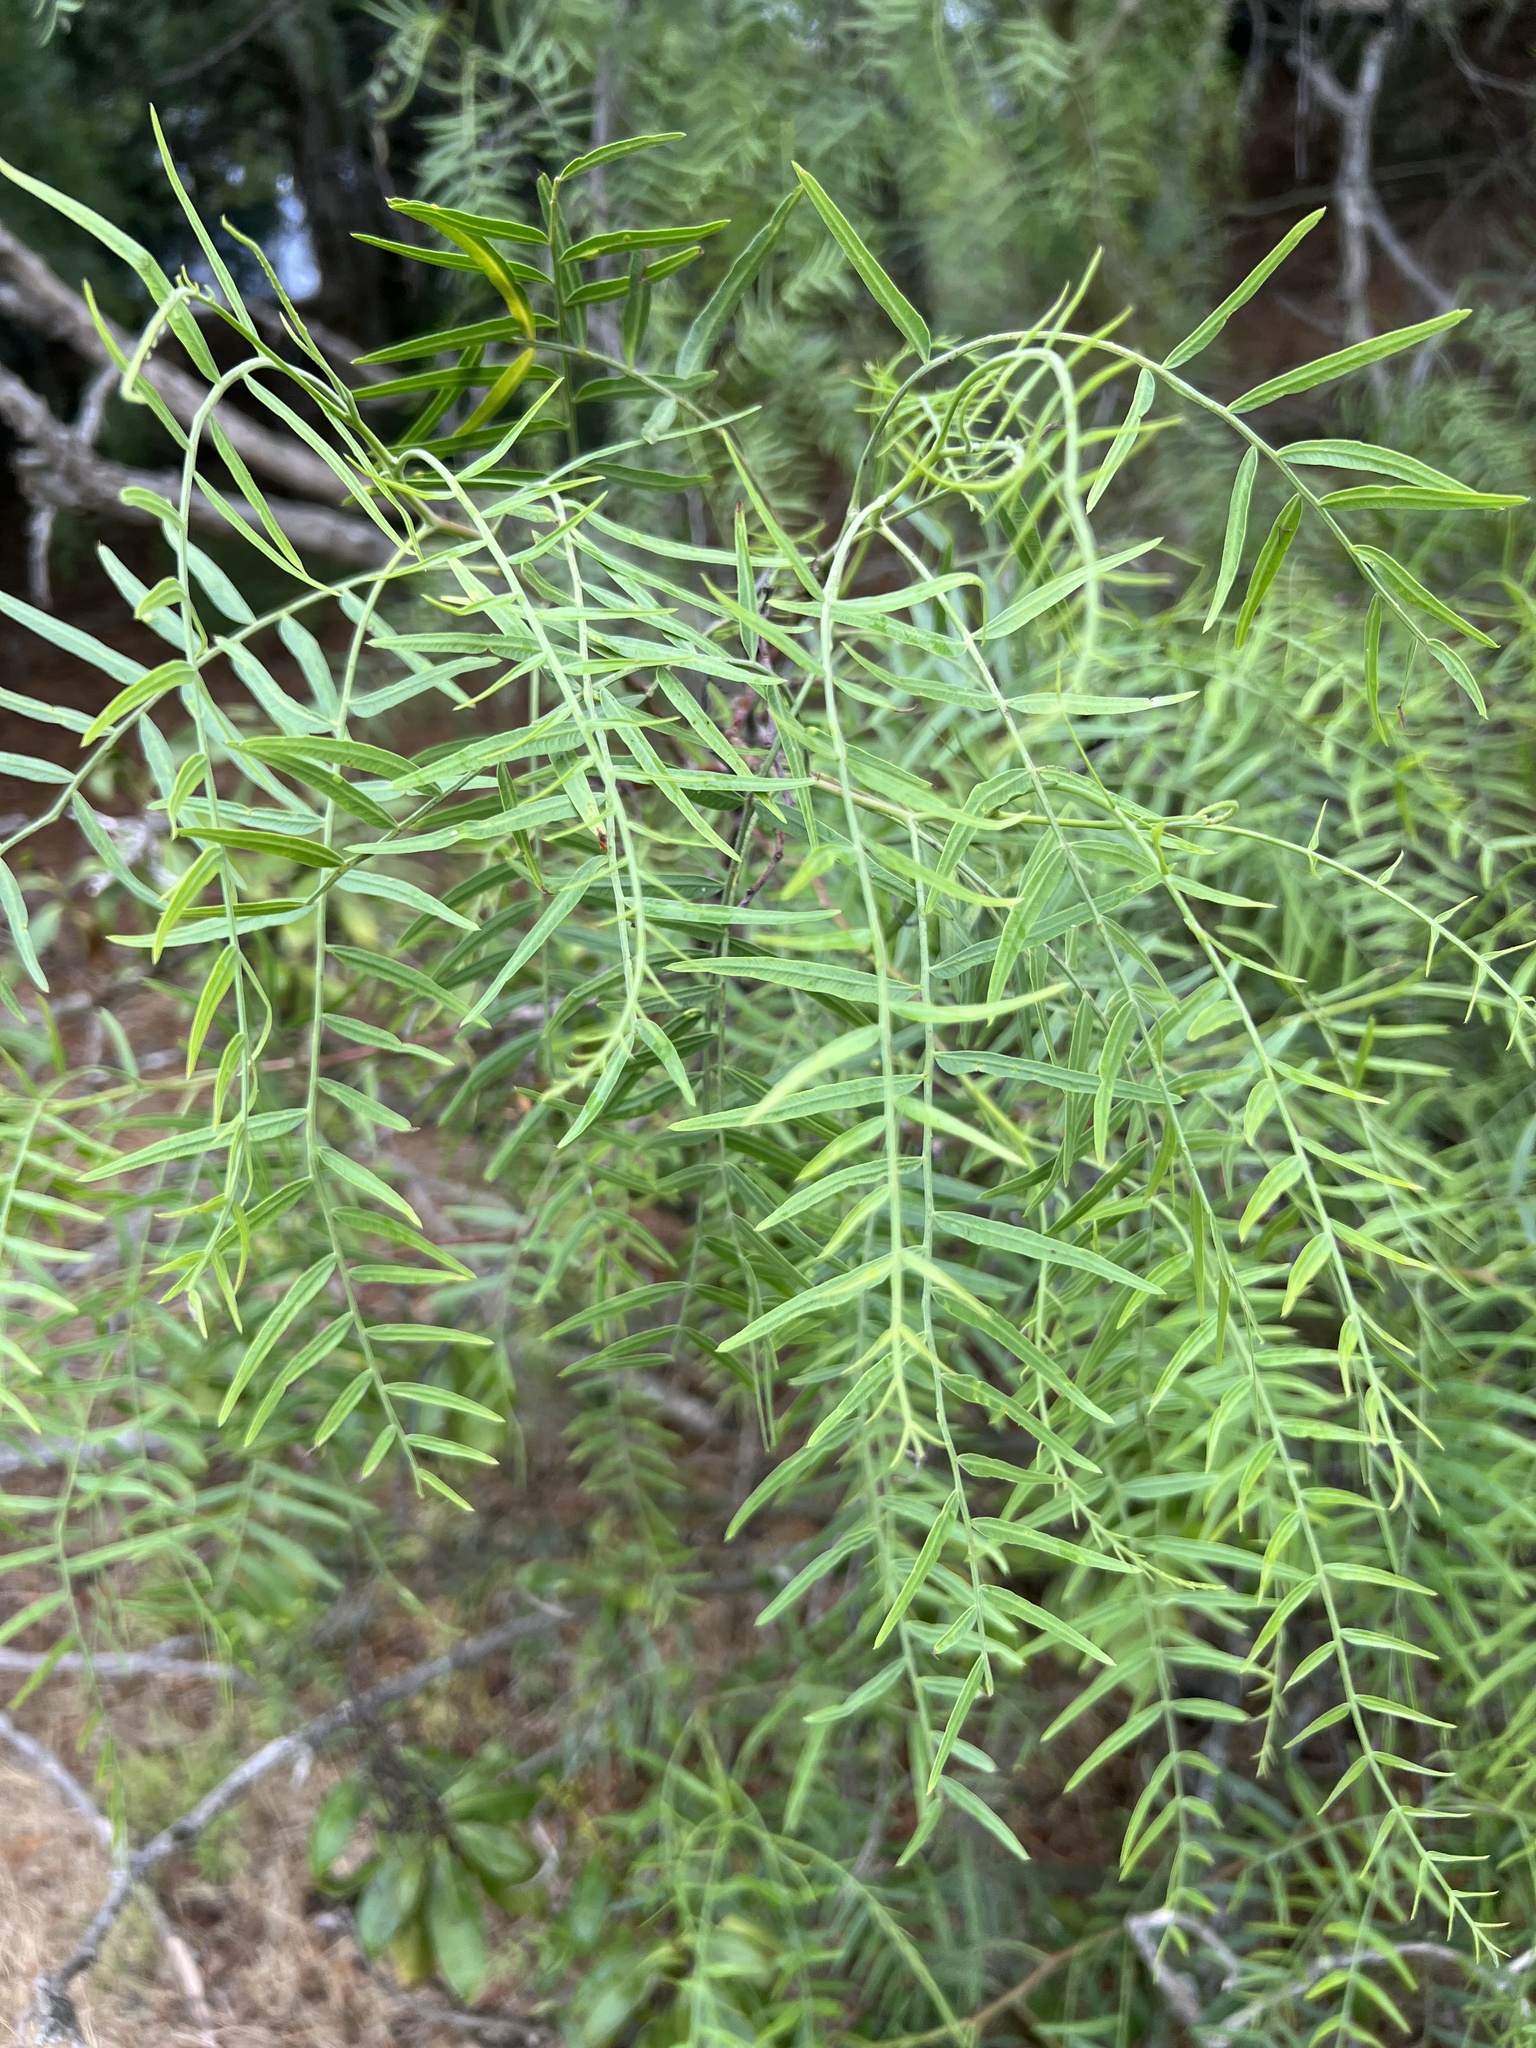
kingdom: Plantae
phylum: Tracheophyta
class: Magnoliopsida
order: Sapindales
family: Anacardiaceae
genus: Schinus
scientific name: Schinus molle
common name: Peruvian peppertree
